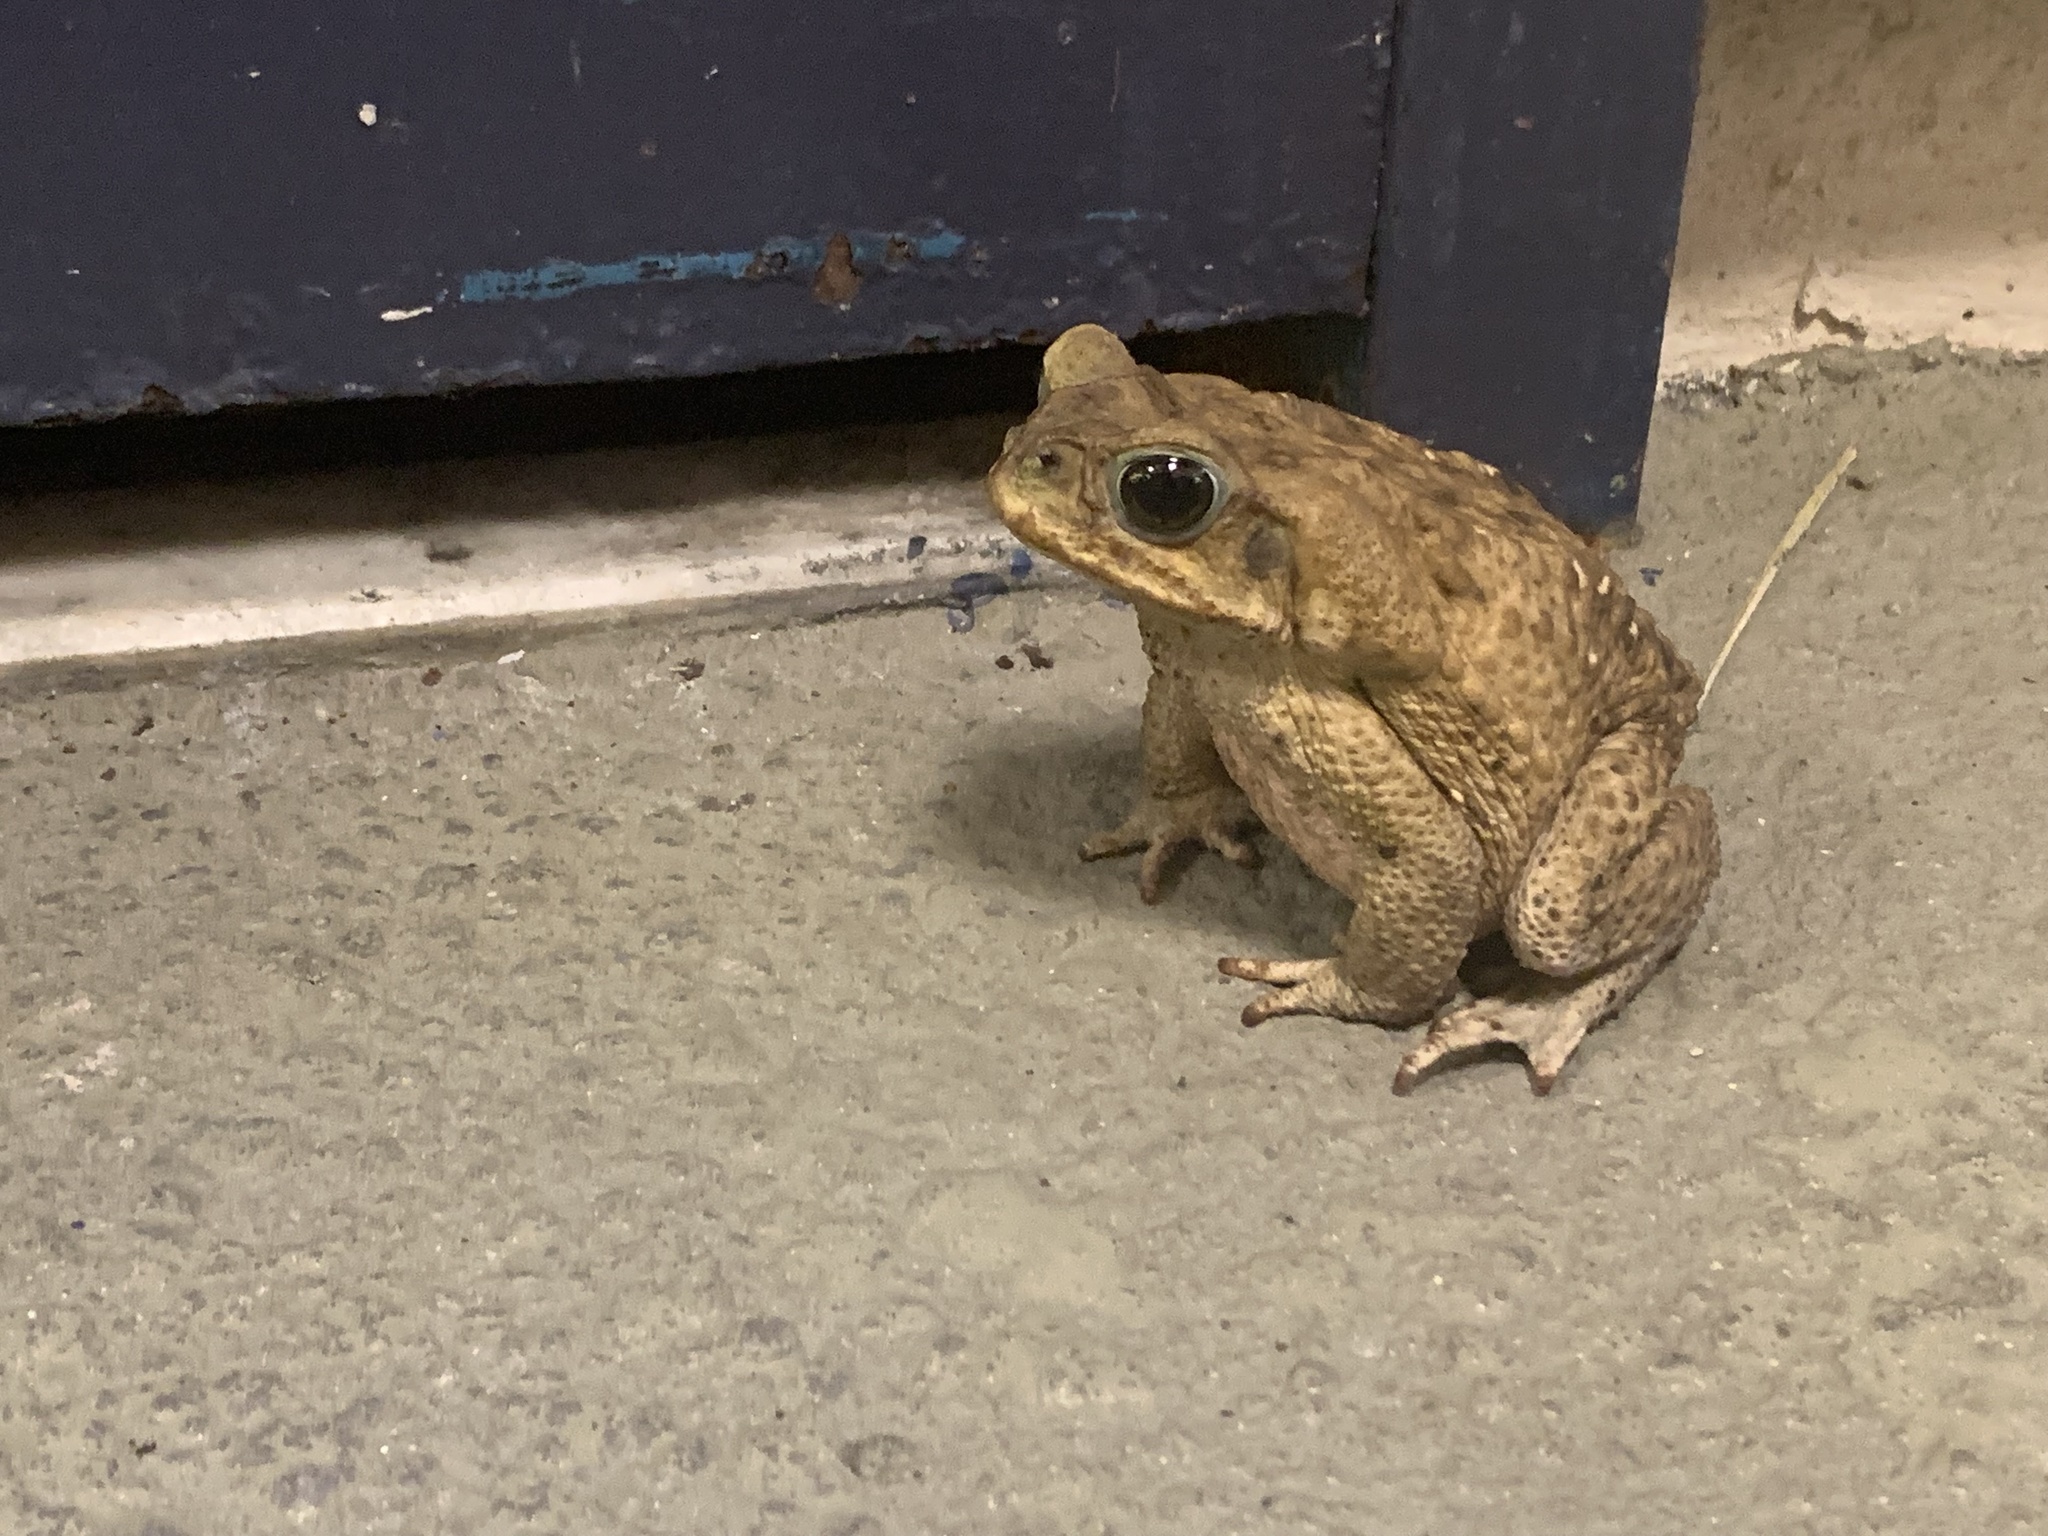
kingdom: Animalia
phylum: Chordata
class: Amphibia
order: Anura
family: Bufonidae
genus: Rhinella
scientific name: Rhinella marina
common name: Cane toad
